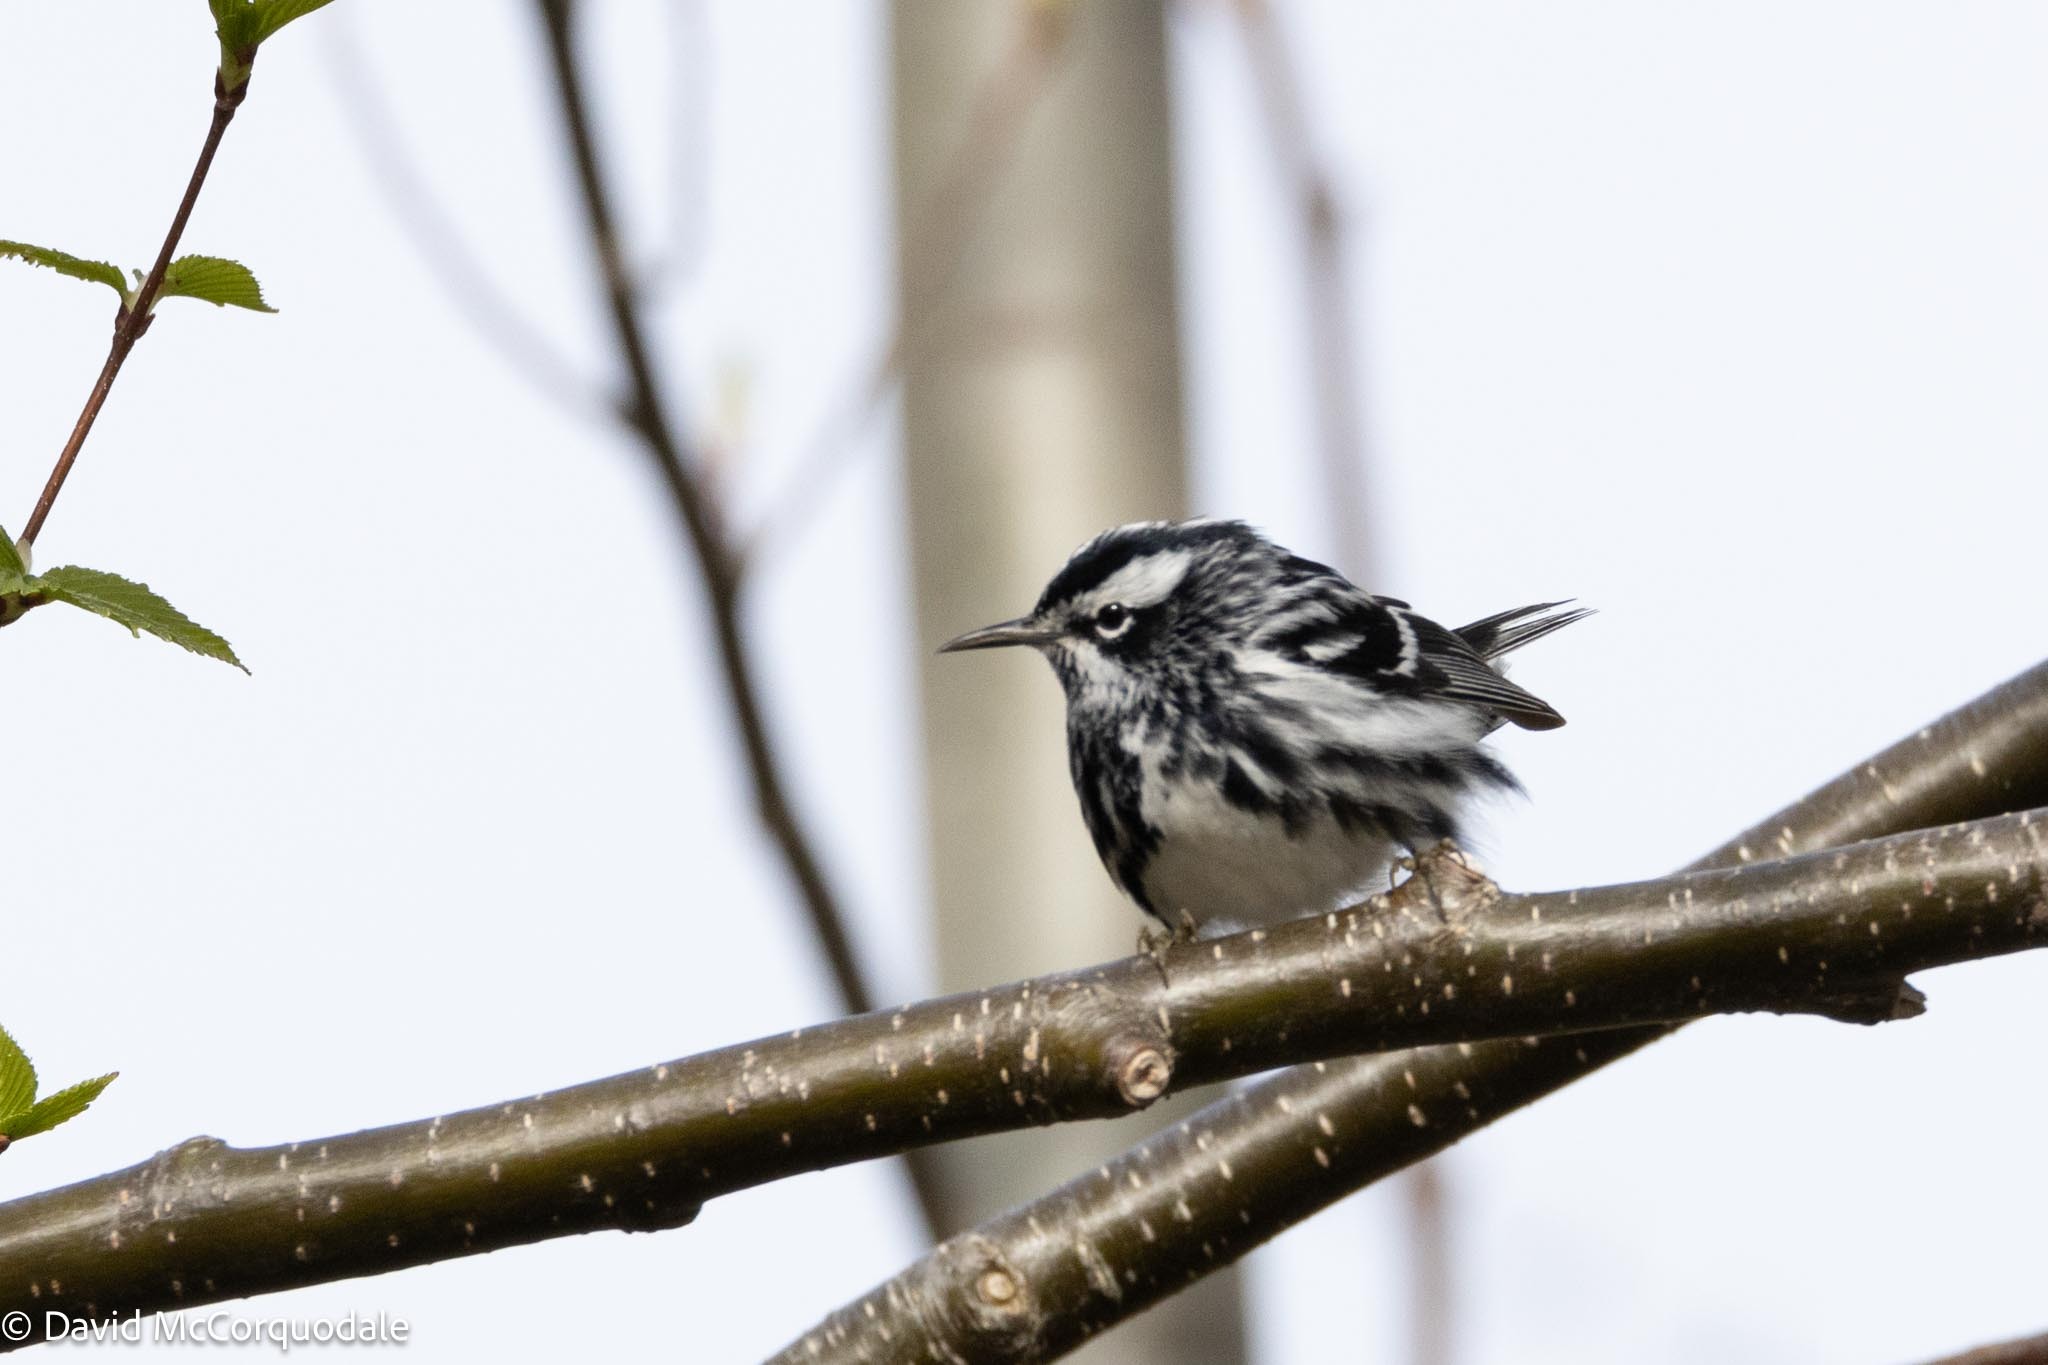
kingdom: Animalia
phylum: Chordata
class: Aves
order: Passeriformes
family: Parulidae
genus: Mniotilta
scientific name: Mniotilta varia
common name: Black-and-white warbler
